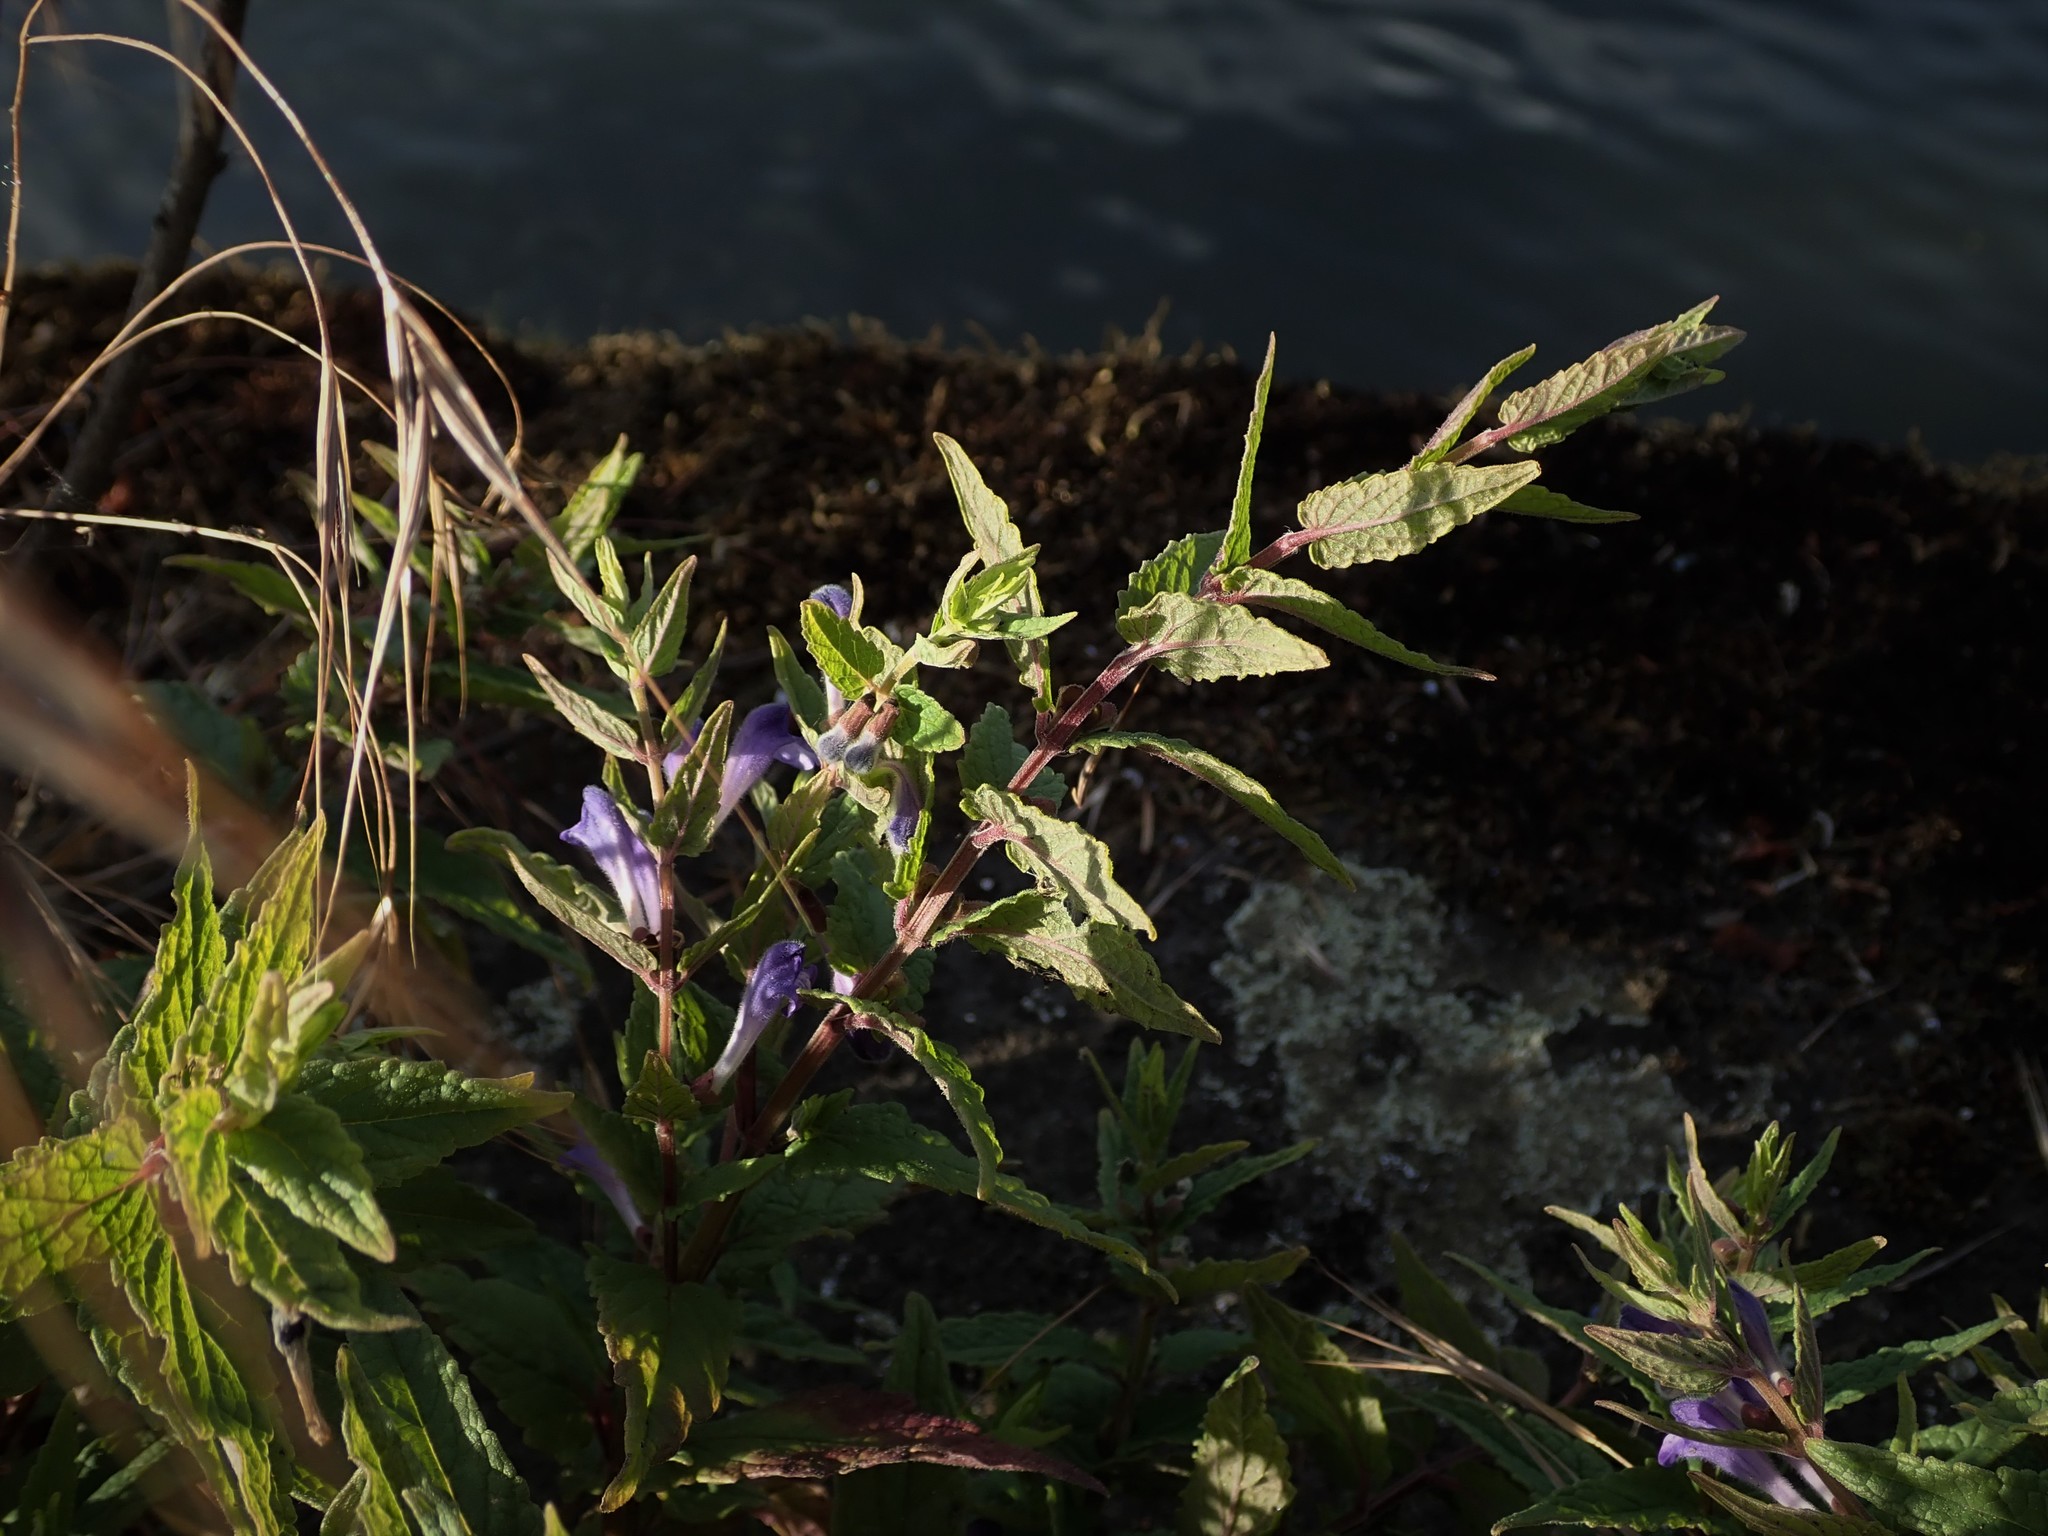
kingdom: Plantae
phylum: Tracheophyta
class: Magnoliopsida
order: Lamiales
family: Lamiaceae
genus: Scutellaria
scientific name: Scutellaria galericulata
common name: Skullcap
